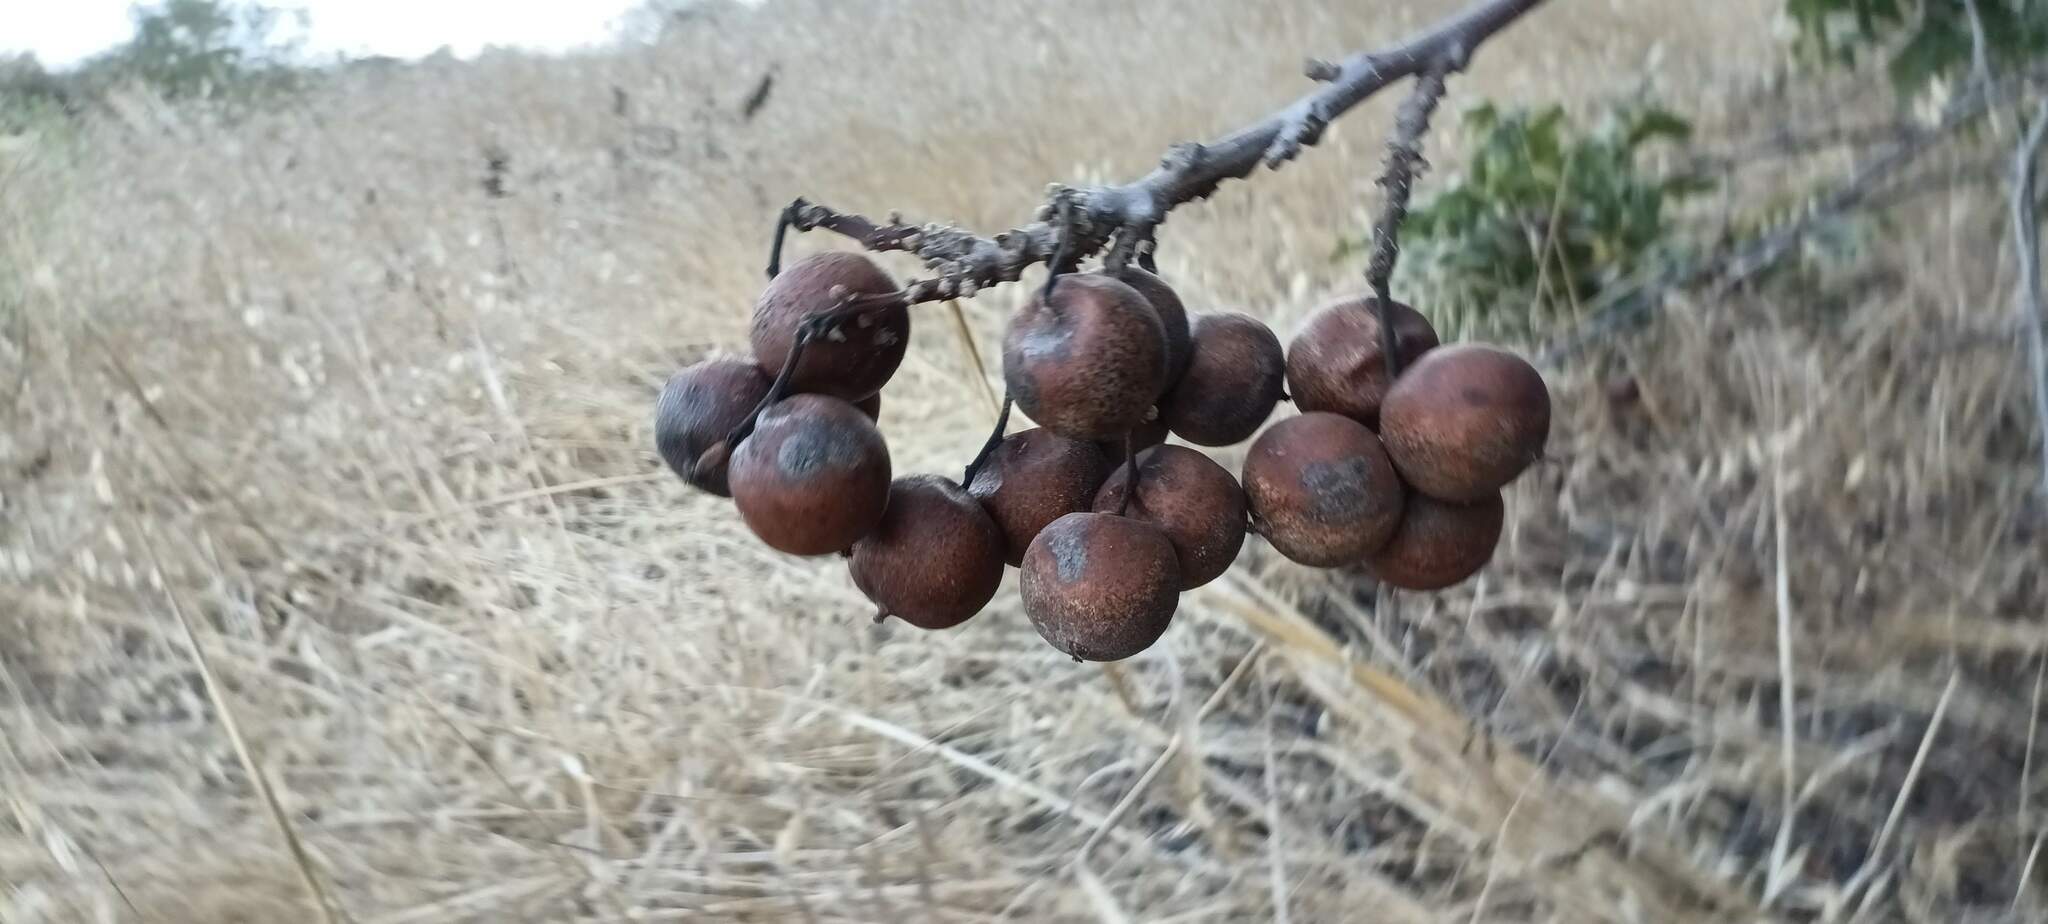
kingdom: Plantae
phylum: Tracheophyta
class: Magnoliopsida
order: Fagales
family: Juglandaceae
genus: Juglans
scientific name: Juglans californica
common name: Southern california black walnut
